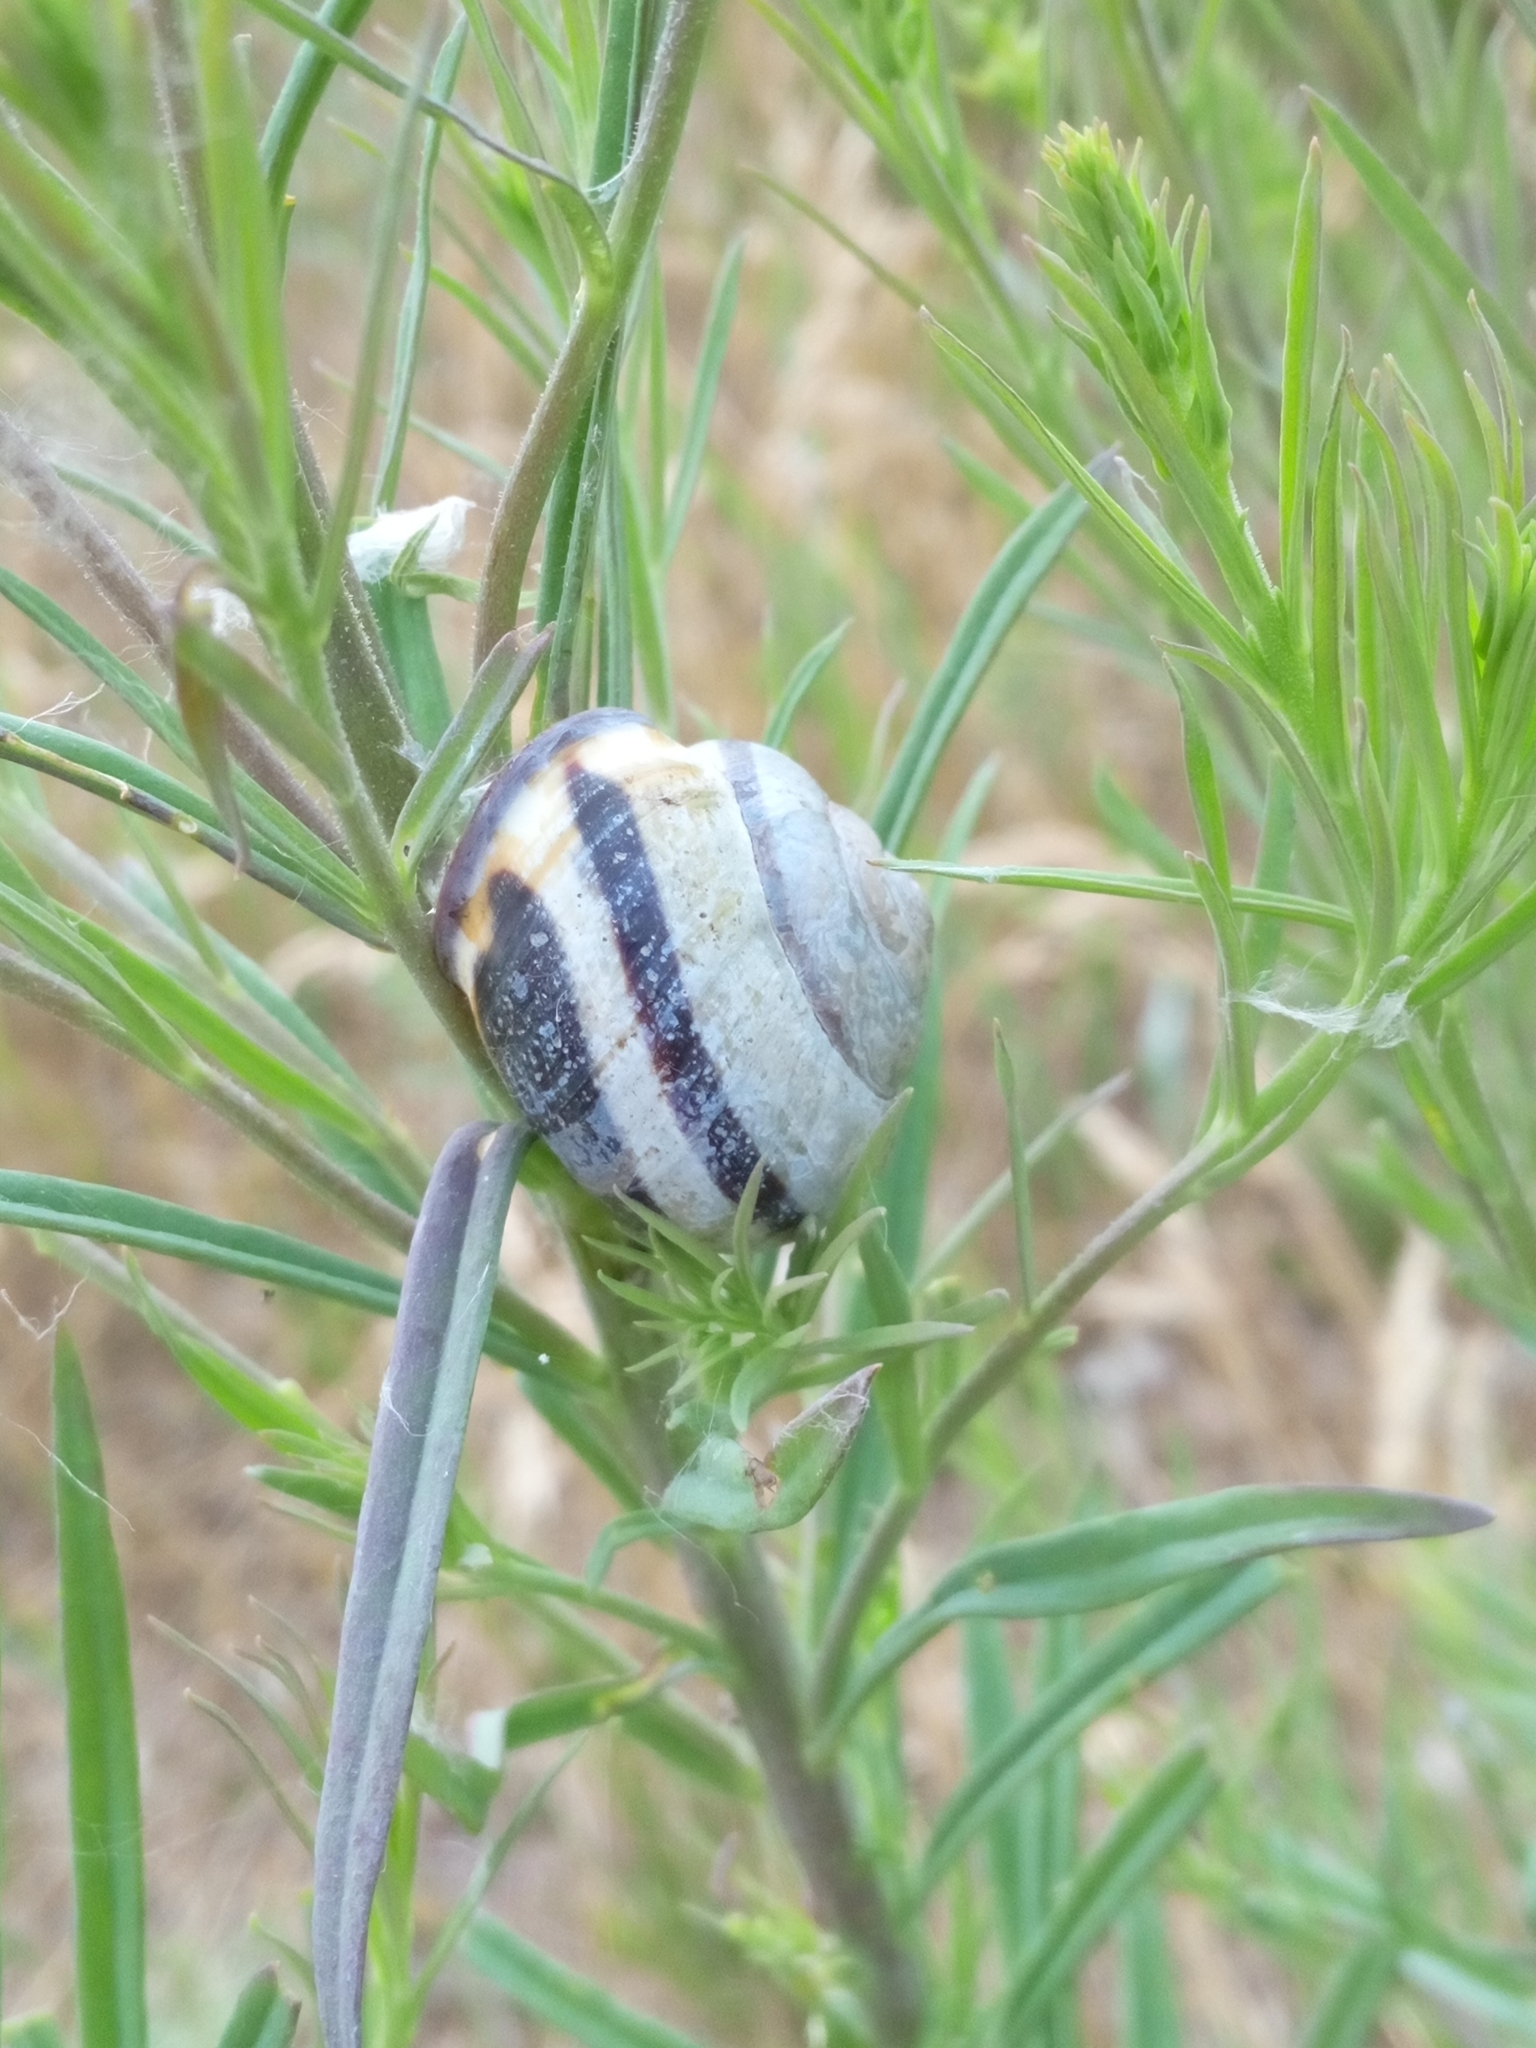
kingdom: Animalia
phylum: Mollusca
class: Gastropoda
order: Stylommatophora
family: Helicidae
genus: Cepaea
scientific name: Cepaea nemoralis
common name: Grovesnail
